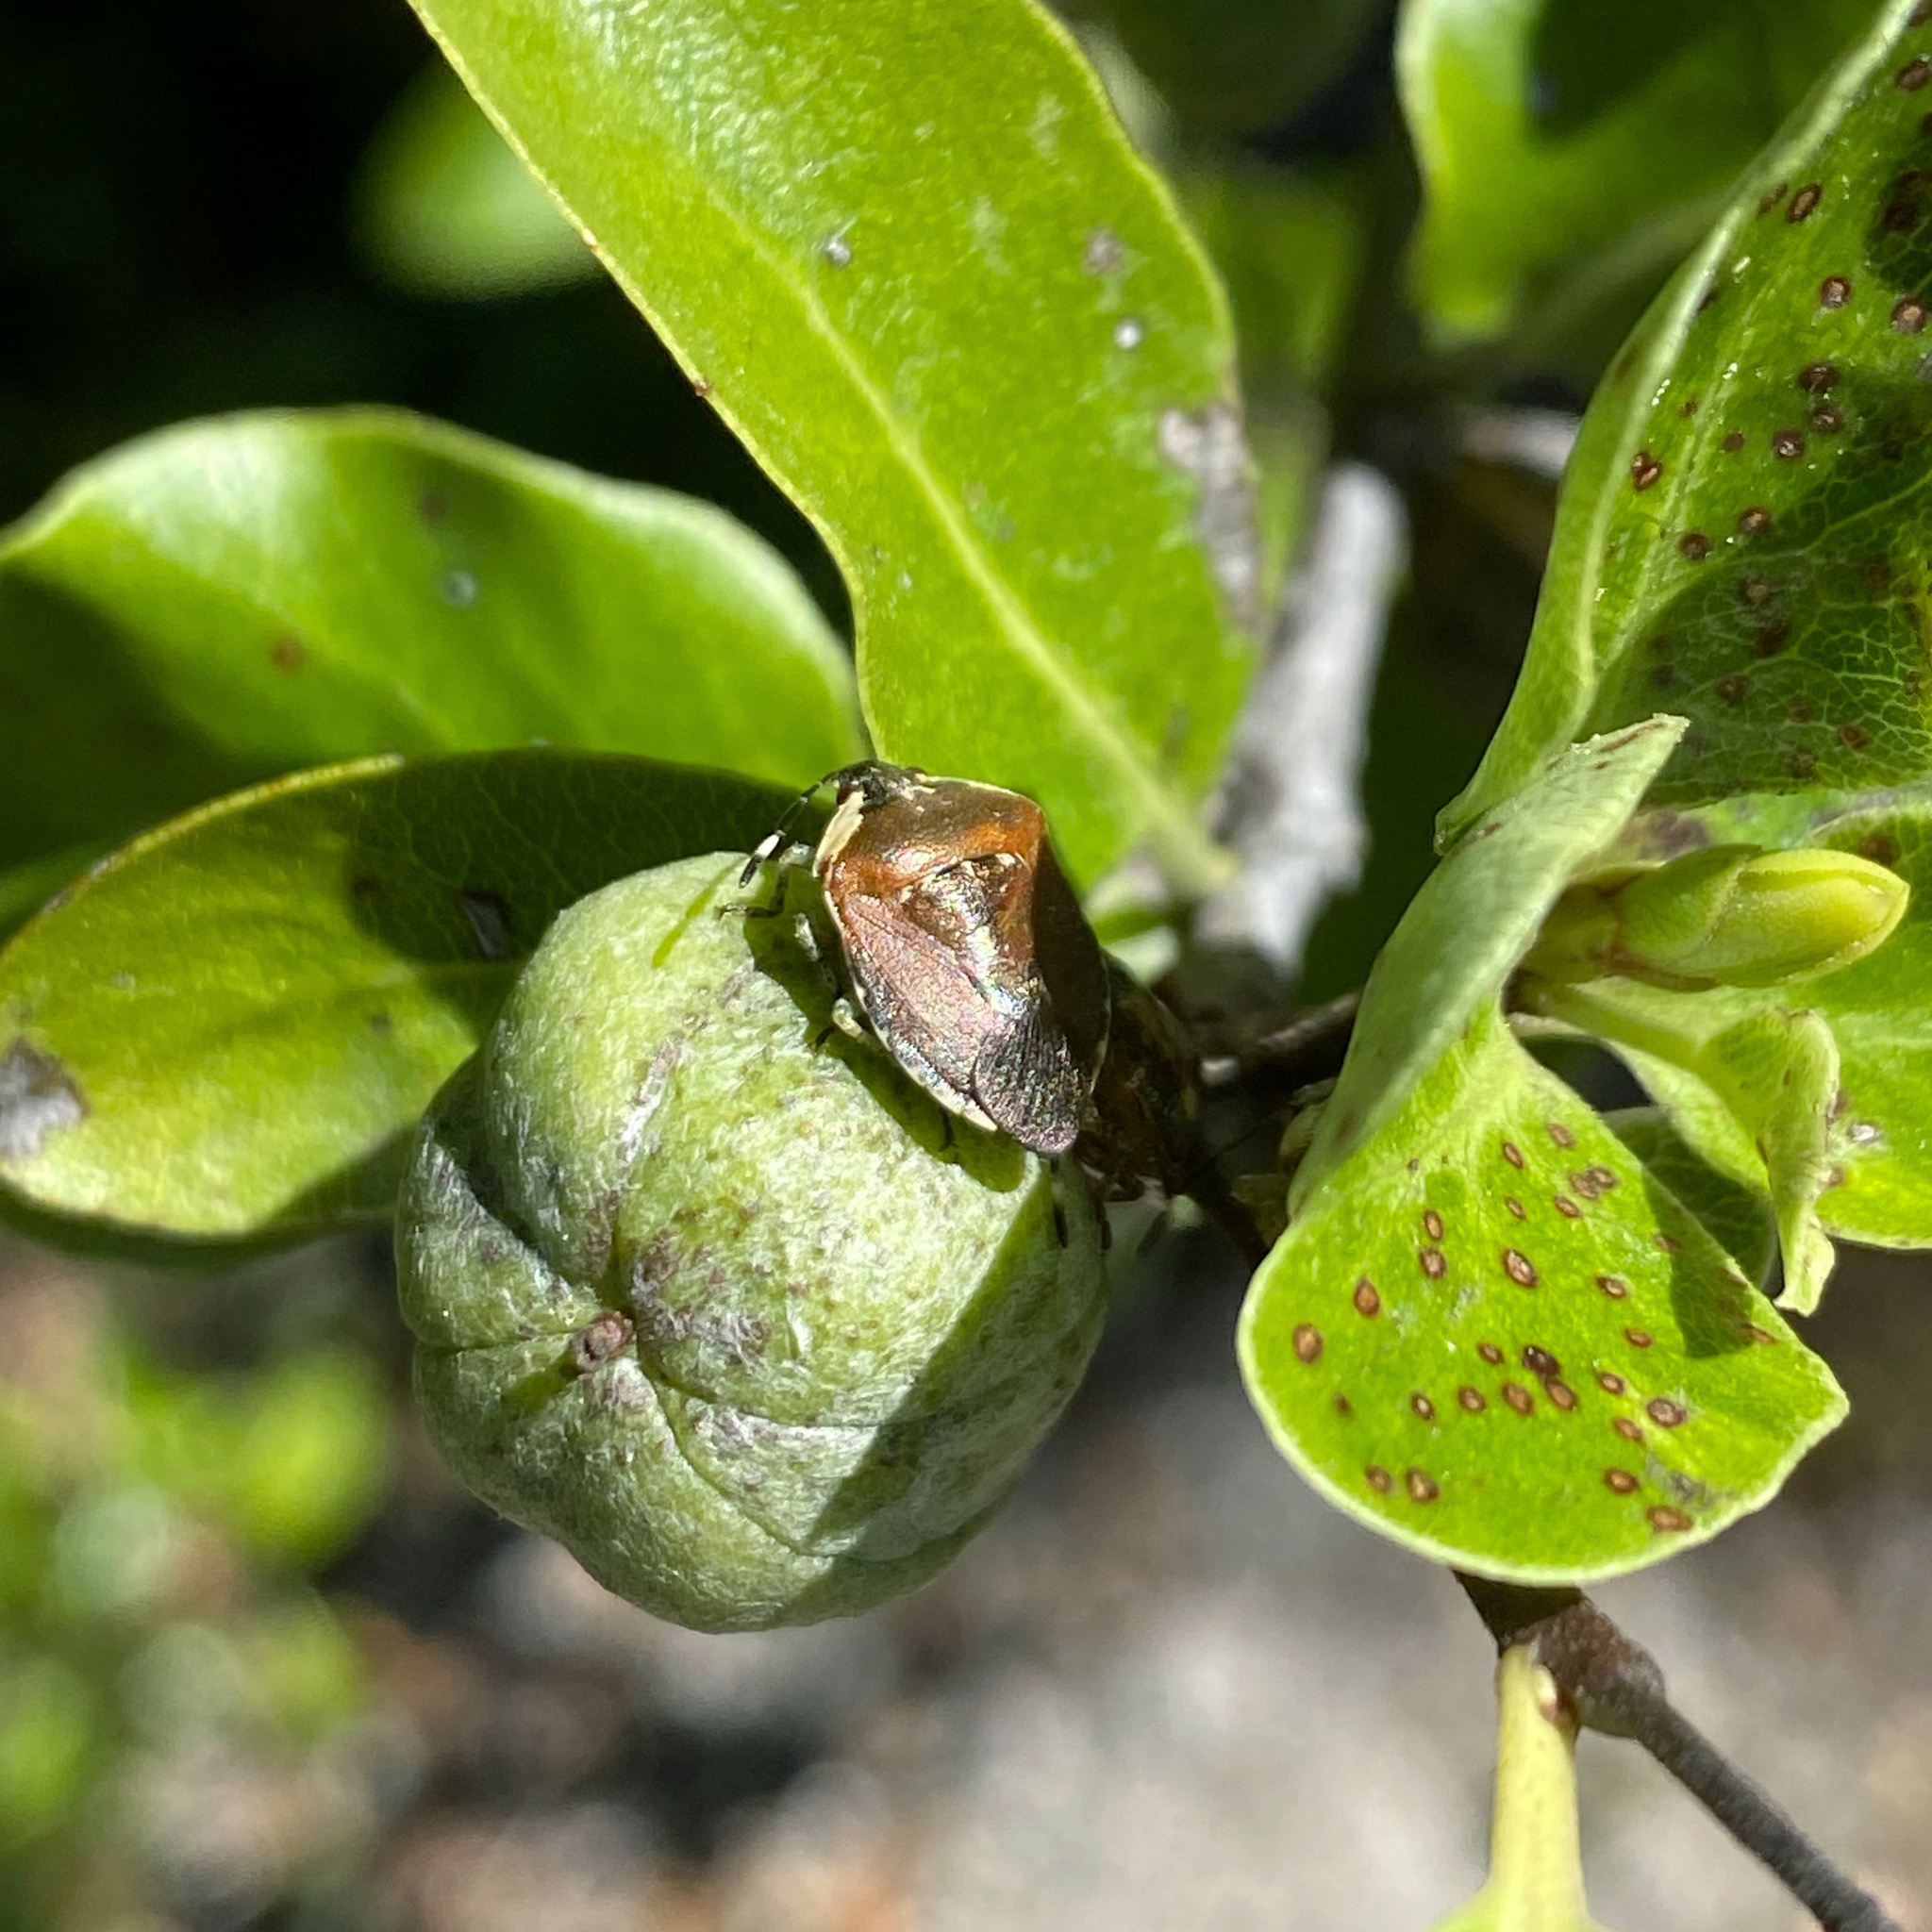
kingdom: Animalia
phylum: Arthropoda
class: Insecta
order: Hemiptera
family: Pentatomidae
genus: Monteithiella
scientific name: Monteithiella
